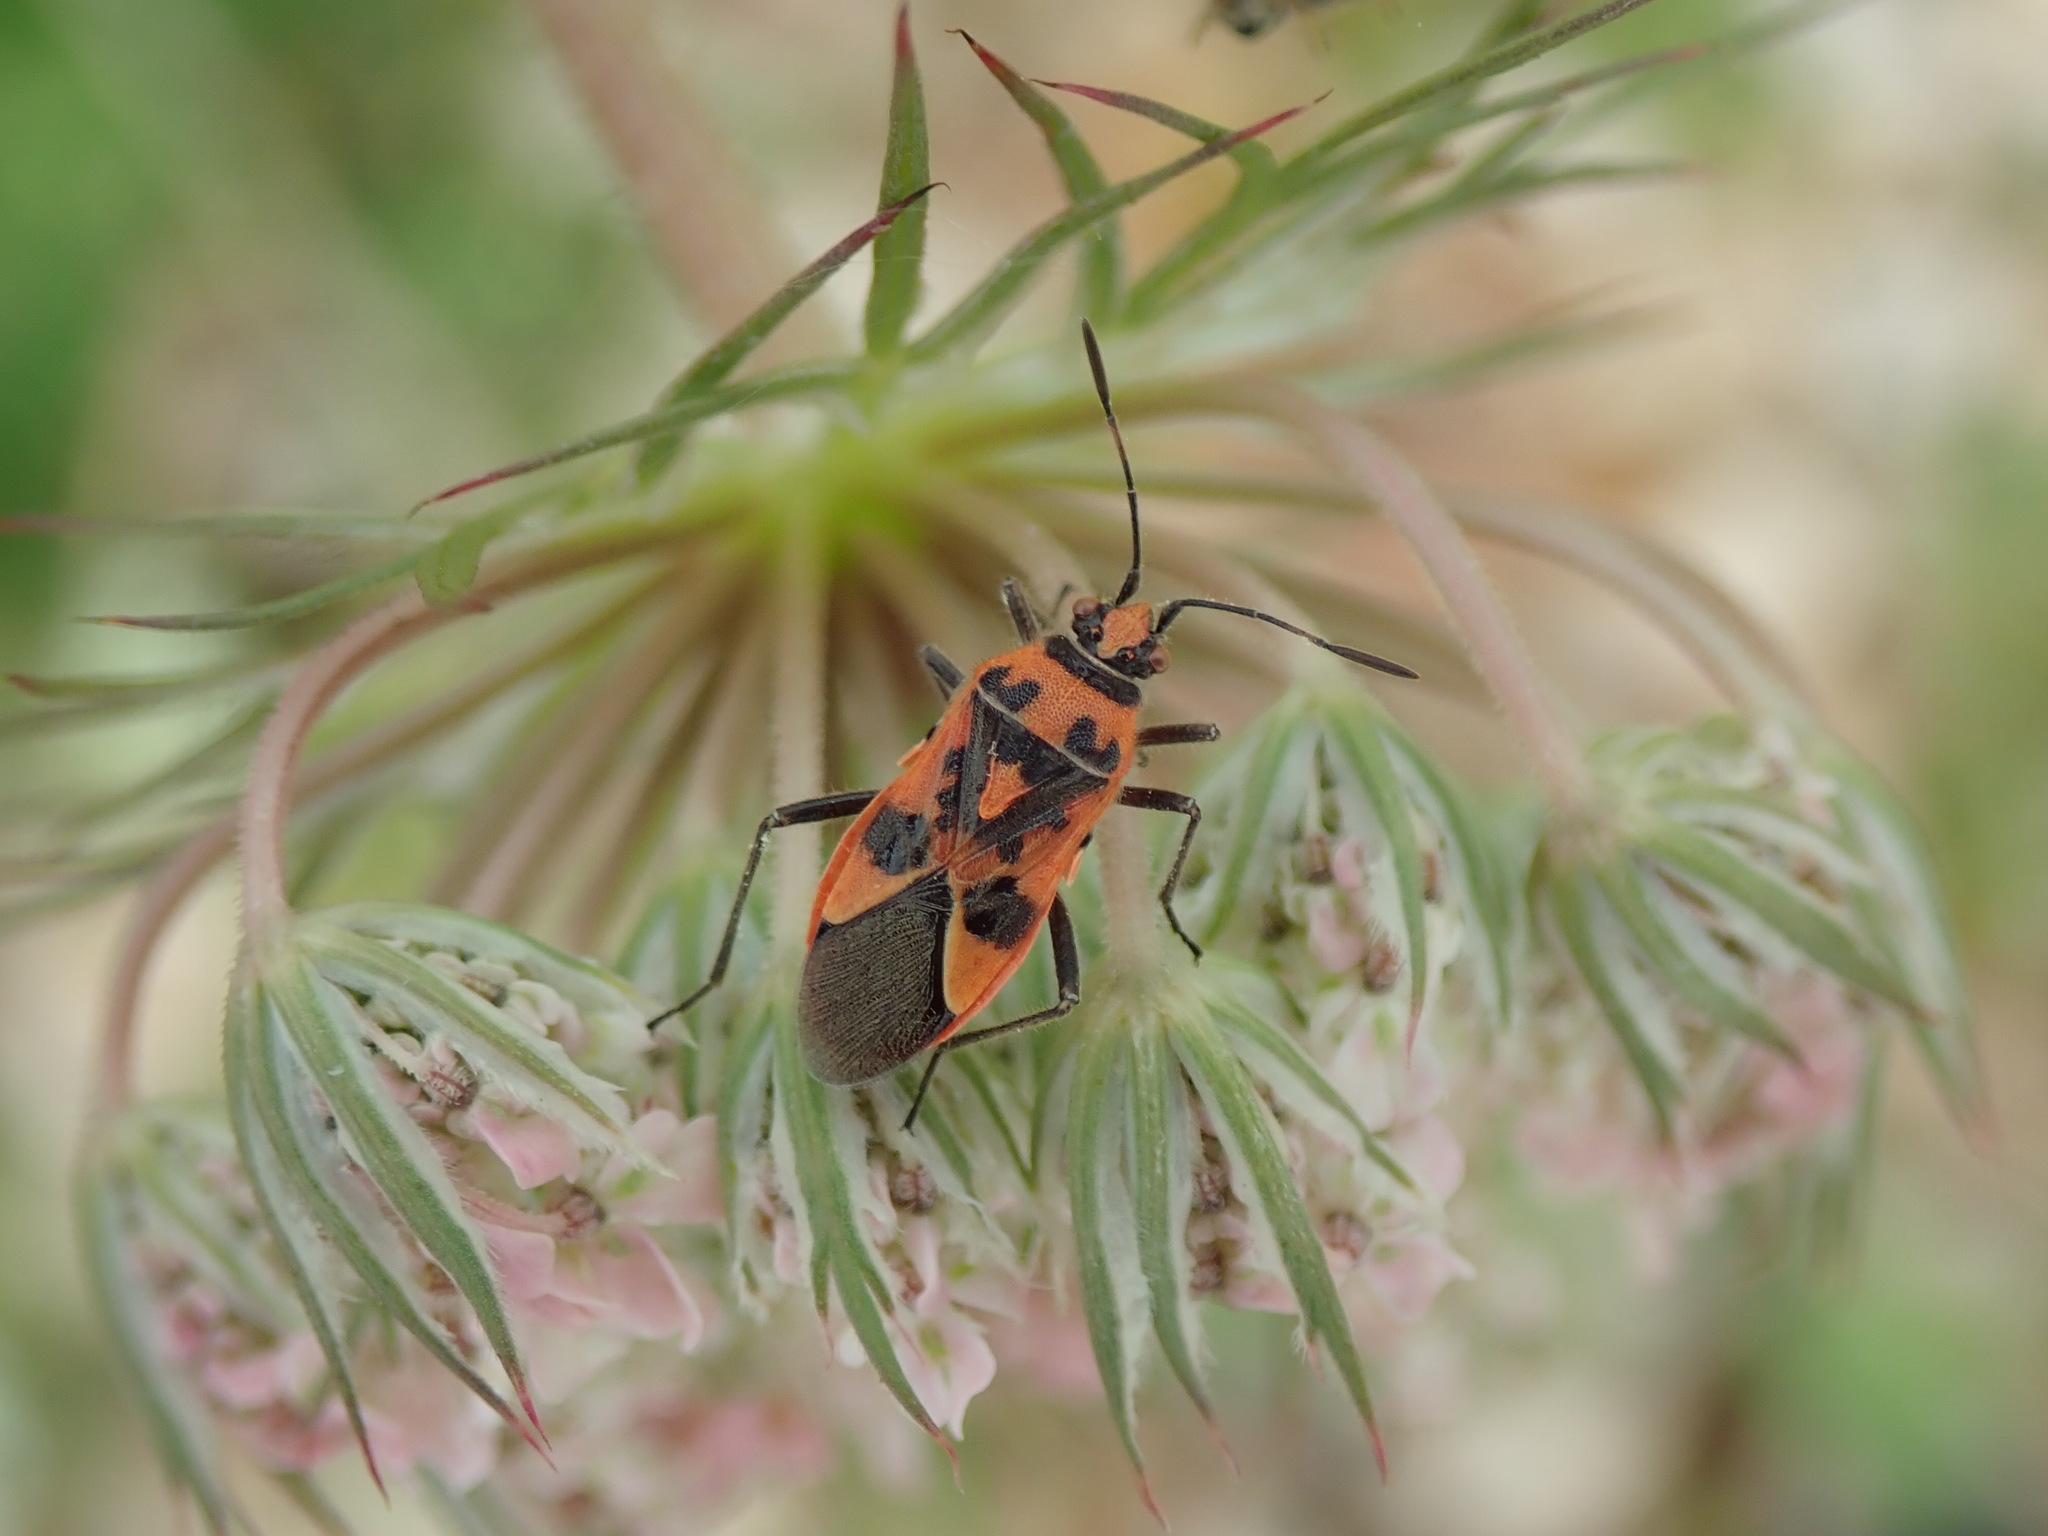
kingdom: Animalia
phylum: Arthropoda
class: Insecta
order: Hemiptera
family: Rhopalidae
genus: Corizus
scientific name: Corizus hyoscyami
